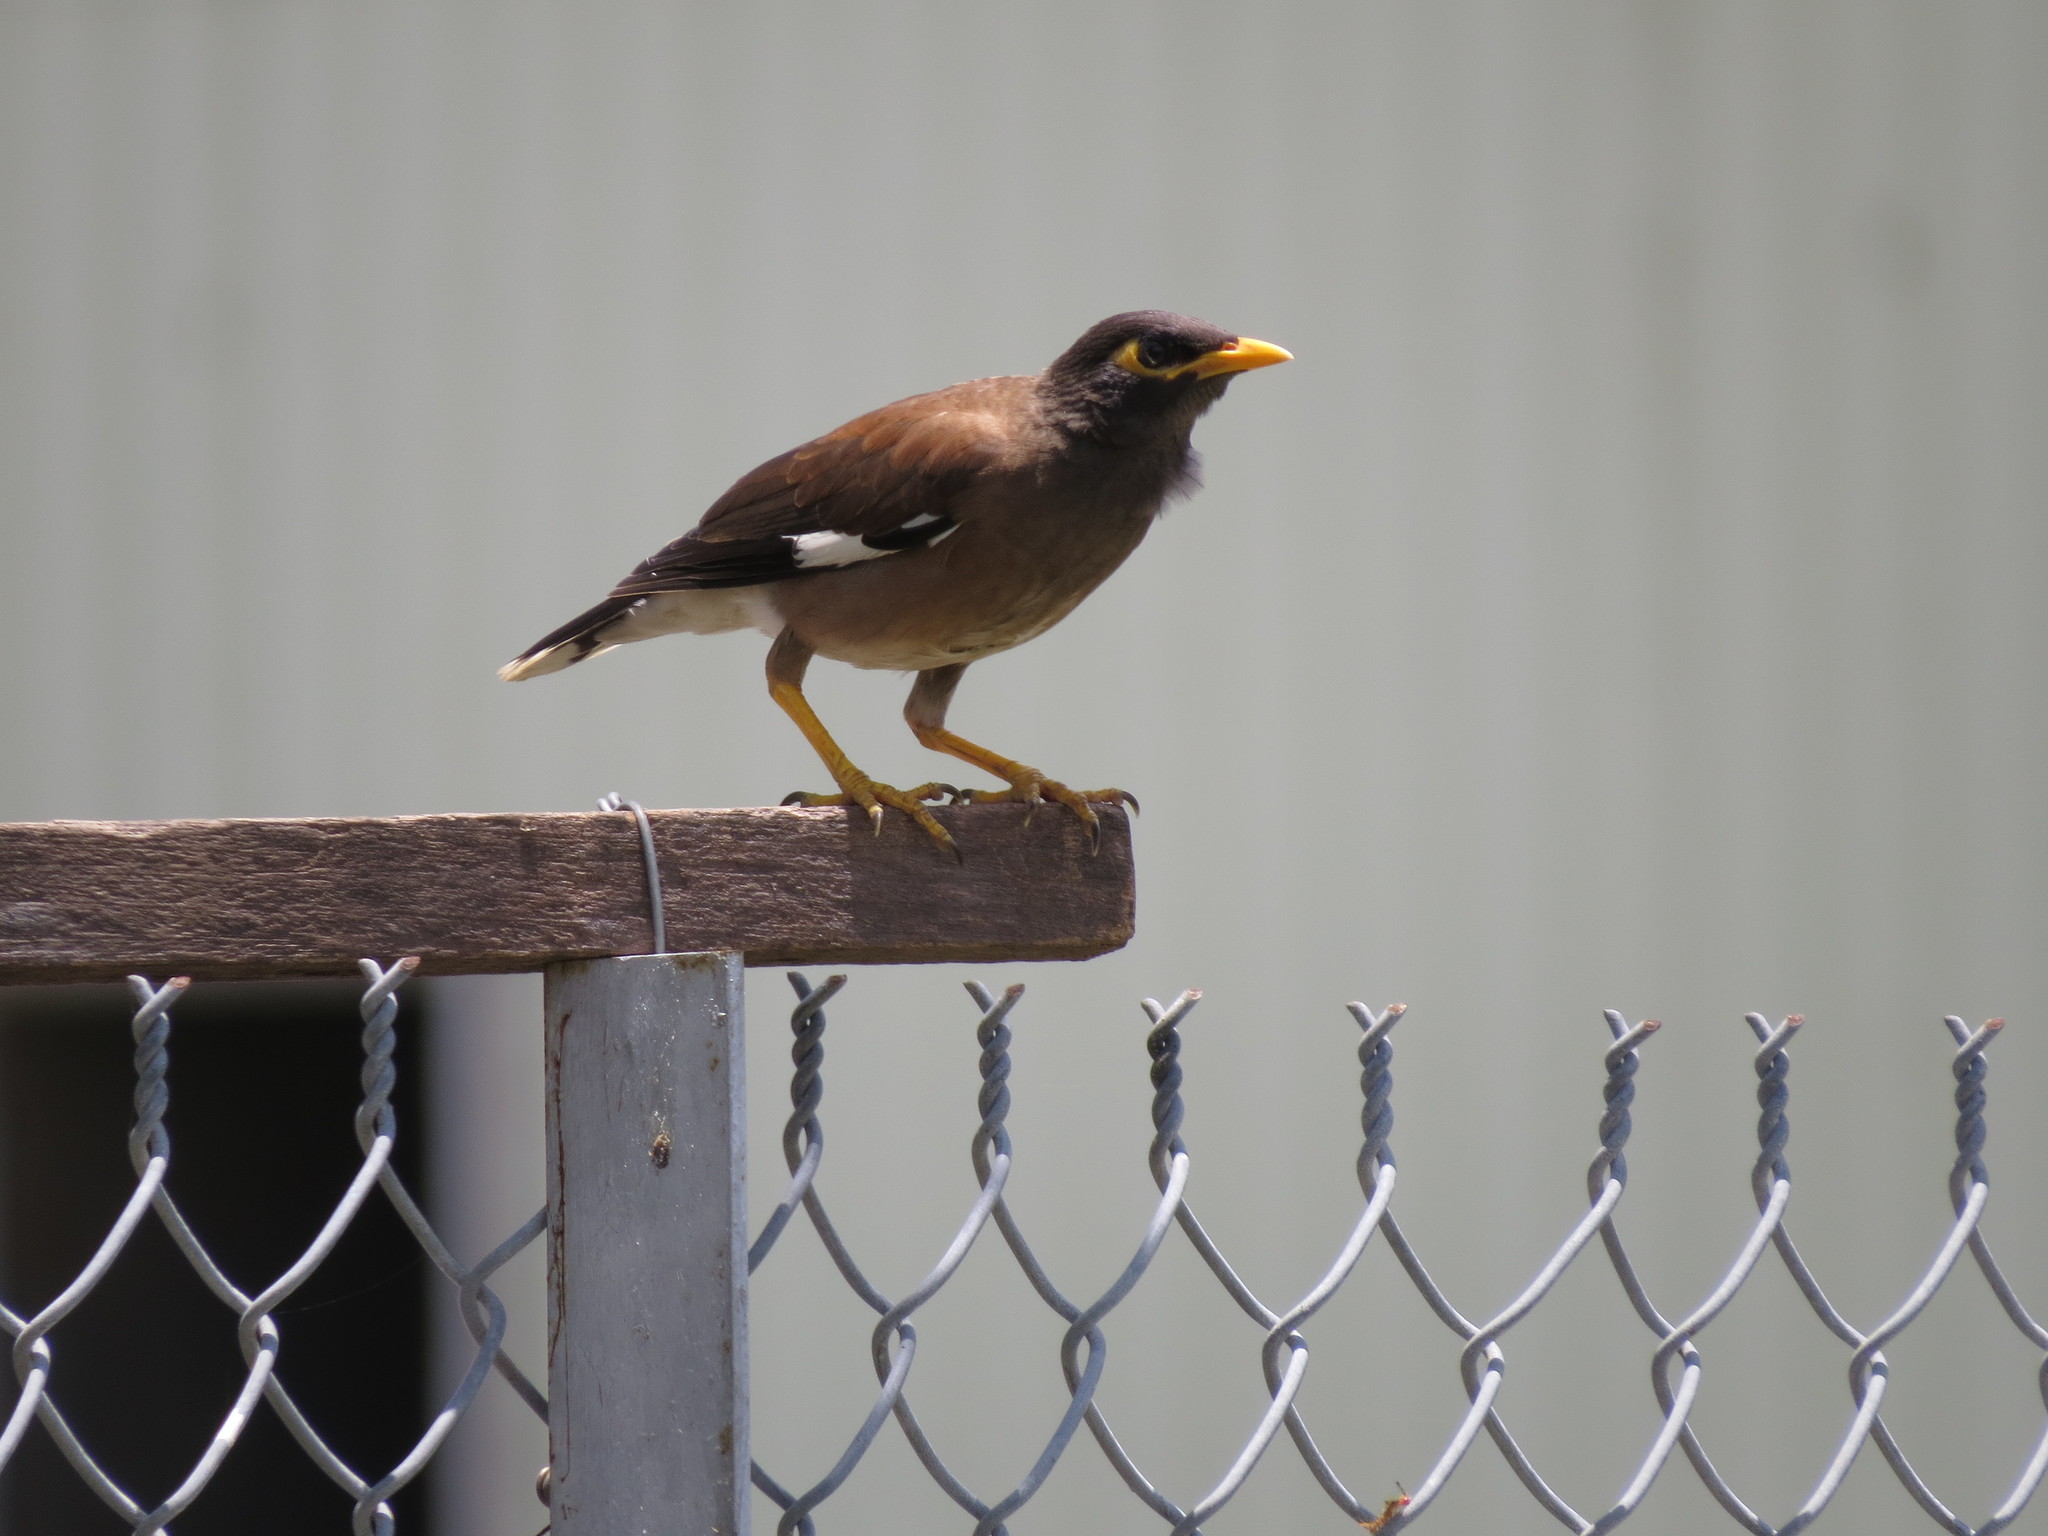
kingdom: Animalia
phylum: Chordata
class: Aves
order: Passeriformes
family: Sturnidae
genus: Acridotheres
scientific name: Acridotheres tristis
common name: Common myna
